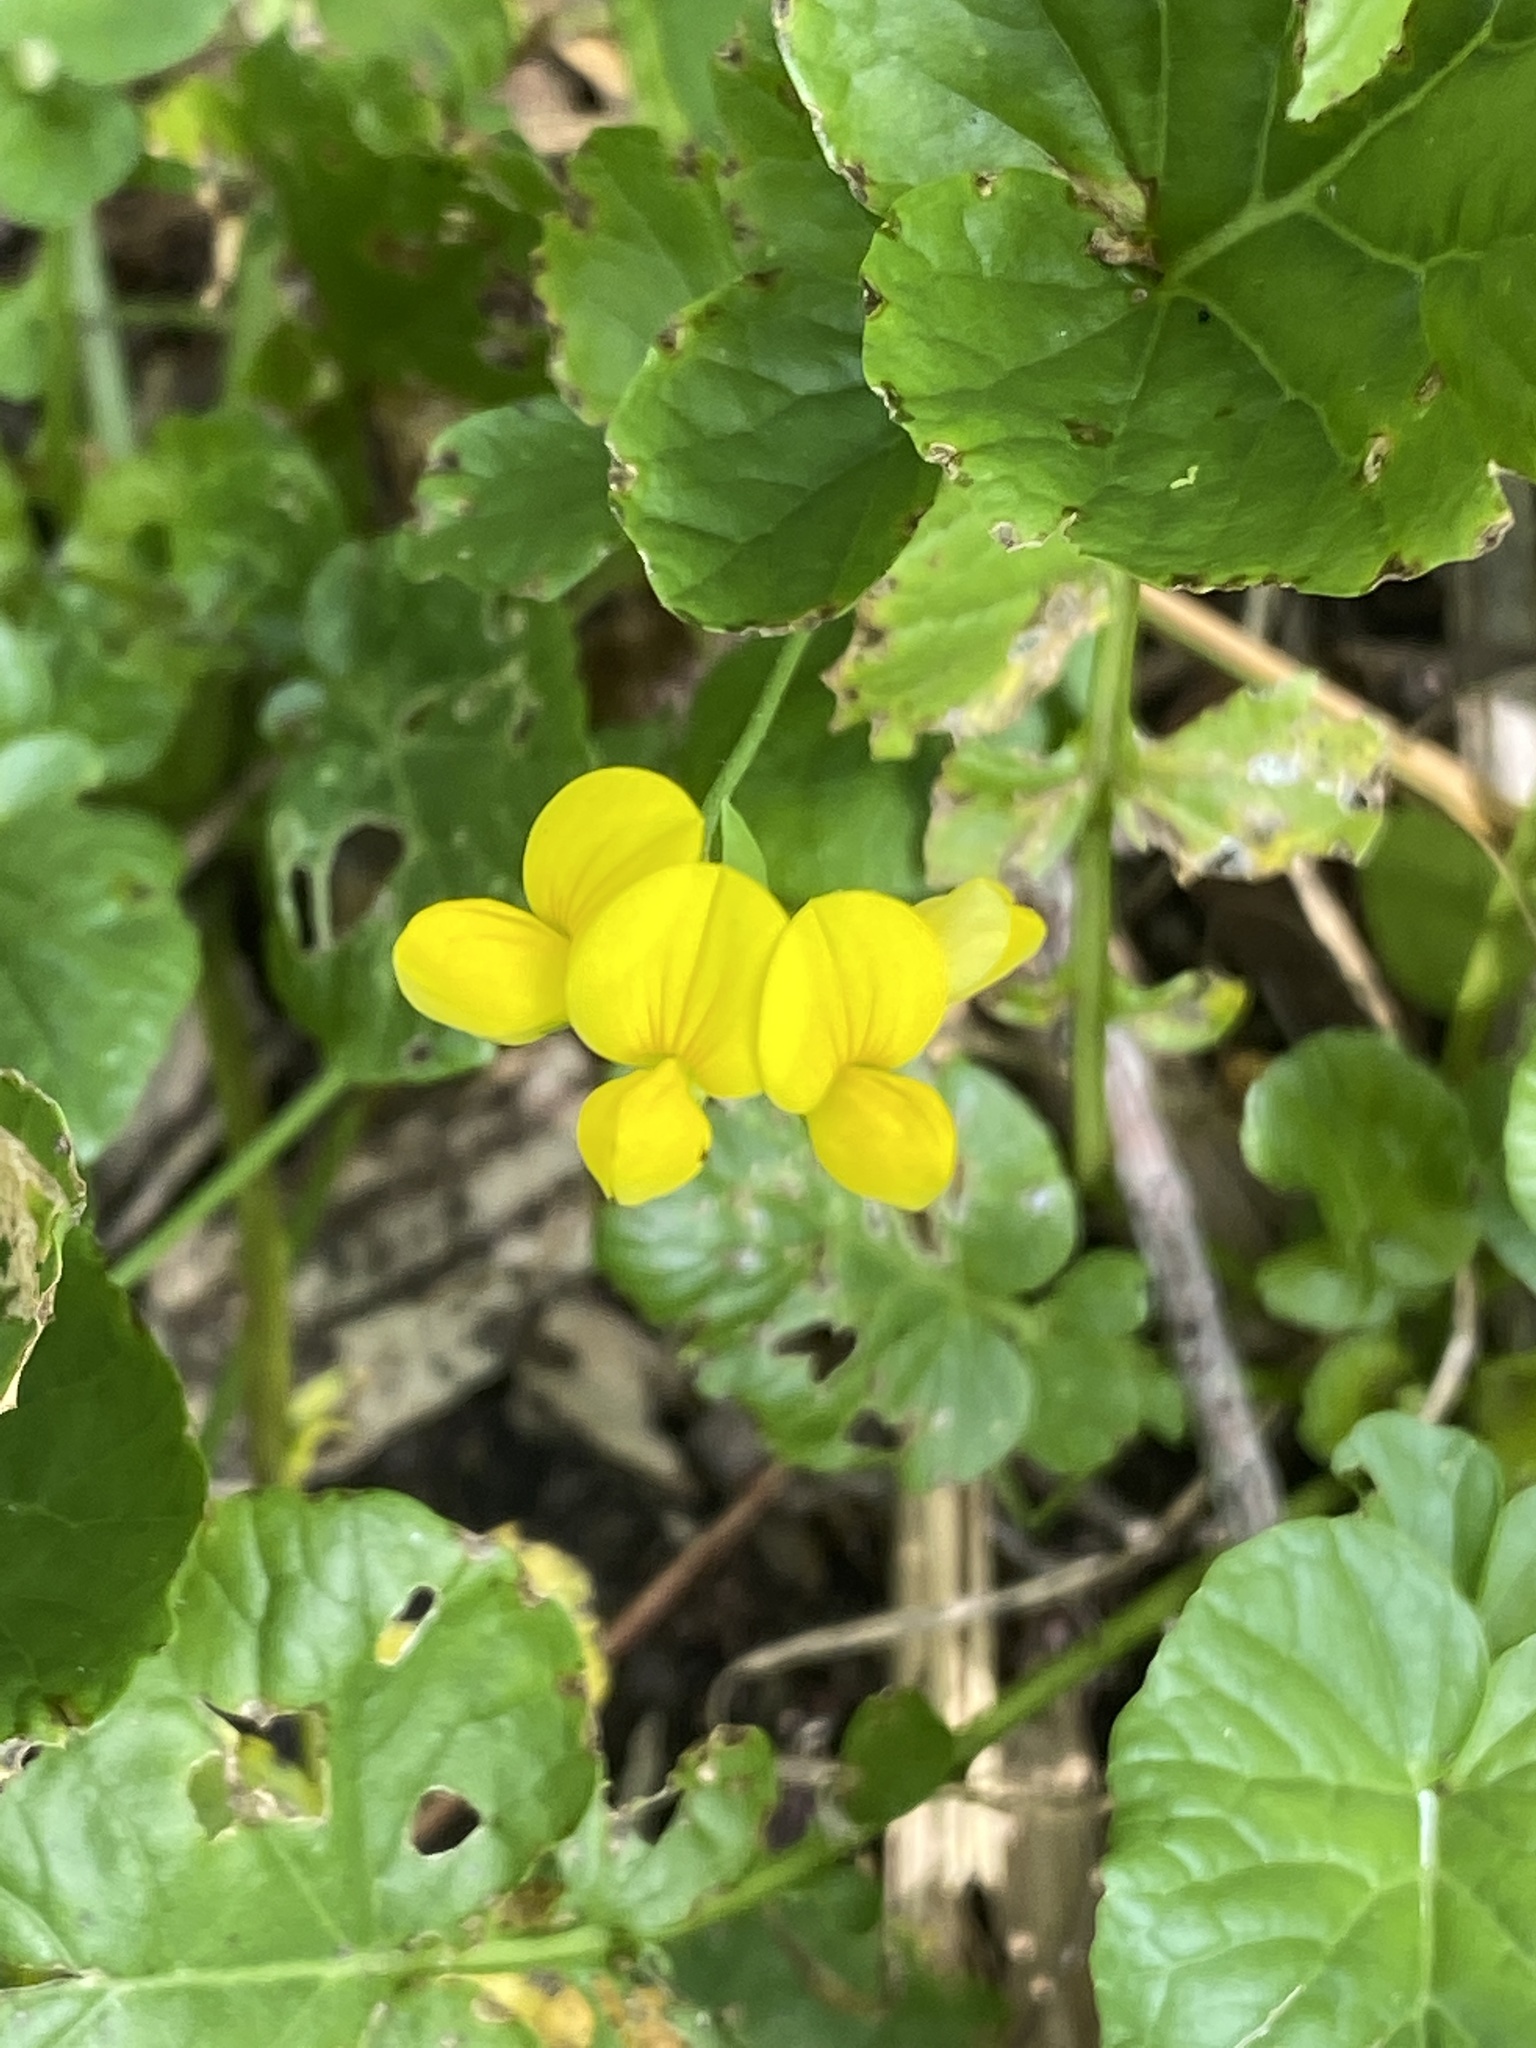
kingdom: Plantae
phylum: Tracheophyta
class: Magnoliopsida
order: Fabales
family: Fabaceae
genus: Lotus
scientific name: Lotus corniculatus
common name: Common bird's-foot-trefoil
